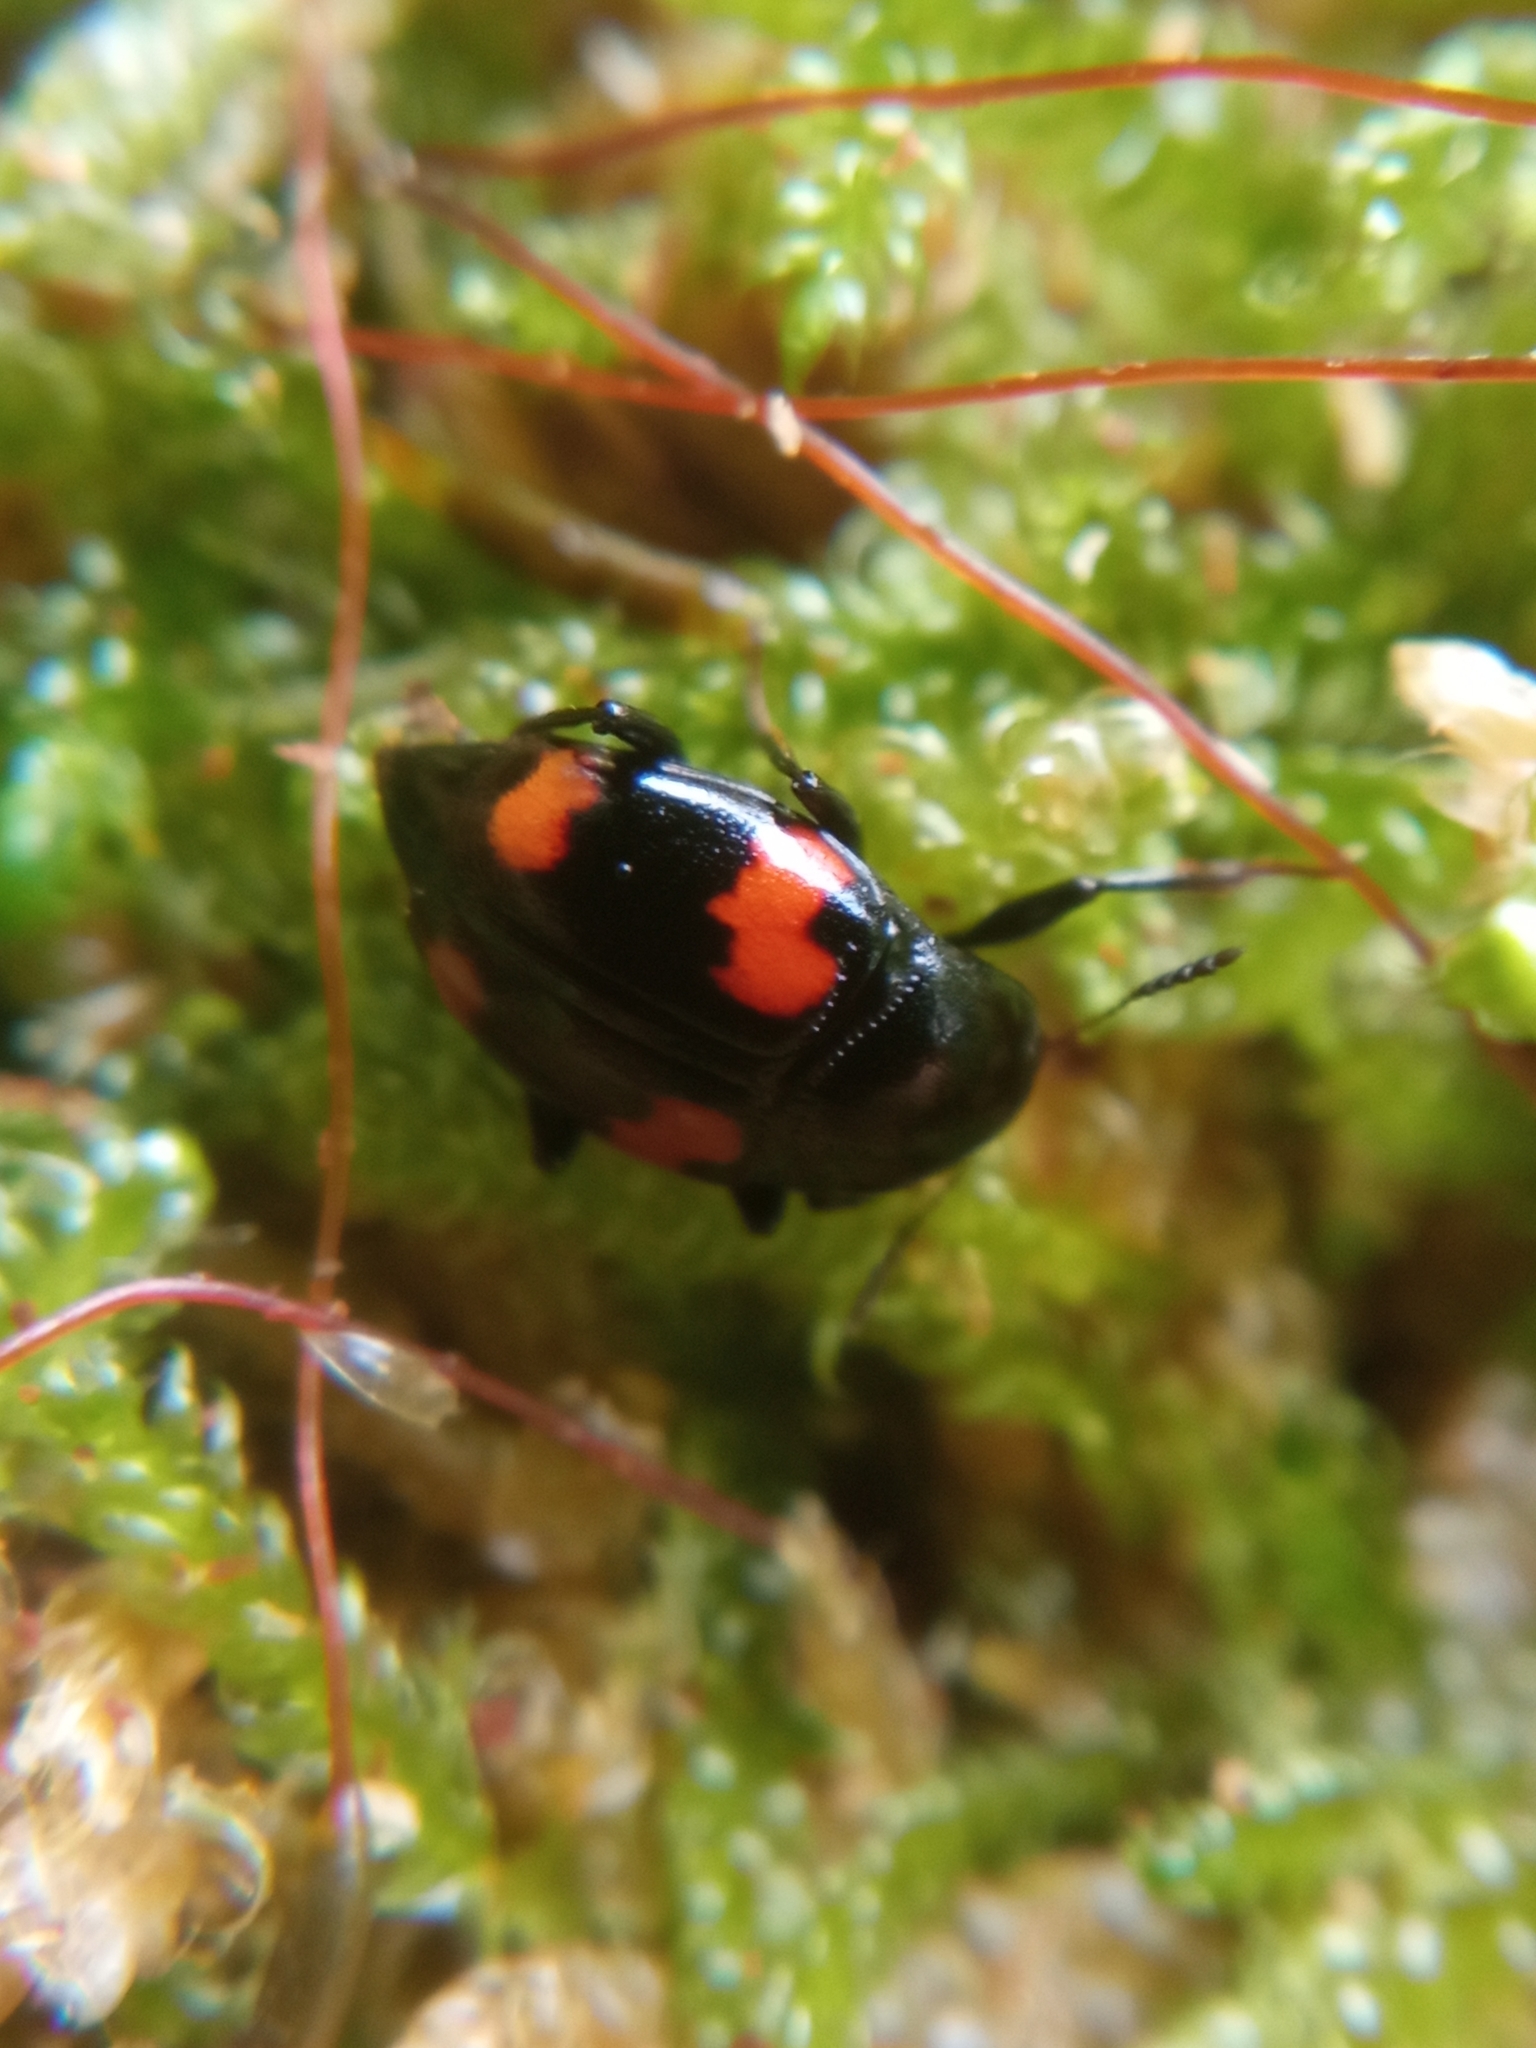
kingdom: Animalia
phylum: Arthropoda
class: Insecta
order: Coleoptera
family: Staphylinidae
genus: Scaphidium
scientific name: Scaphidium quadrimaculatum
